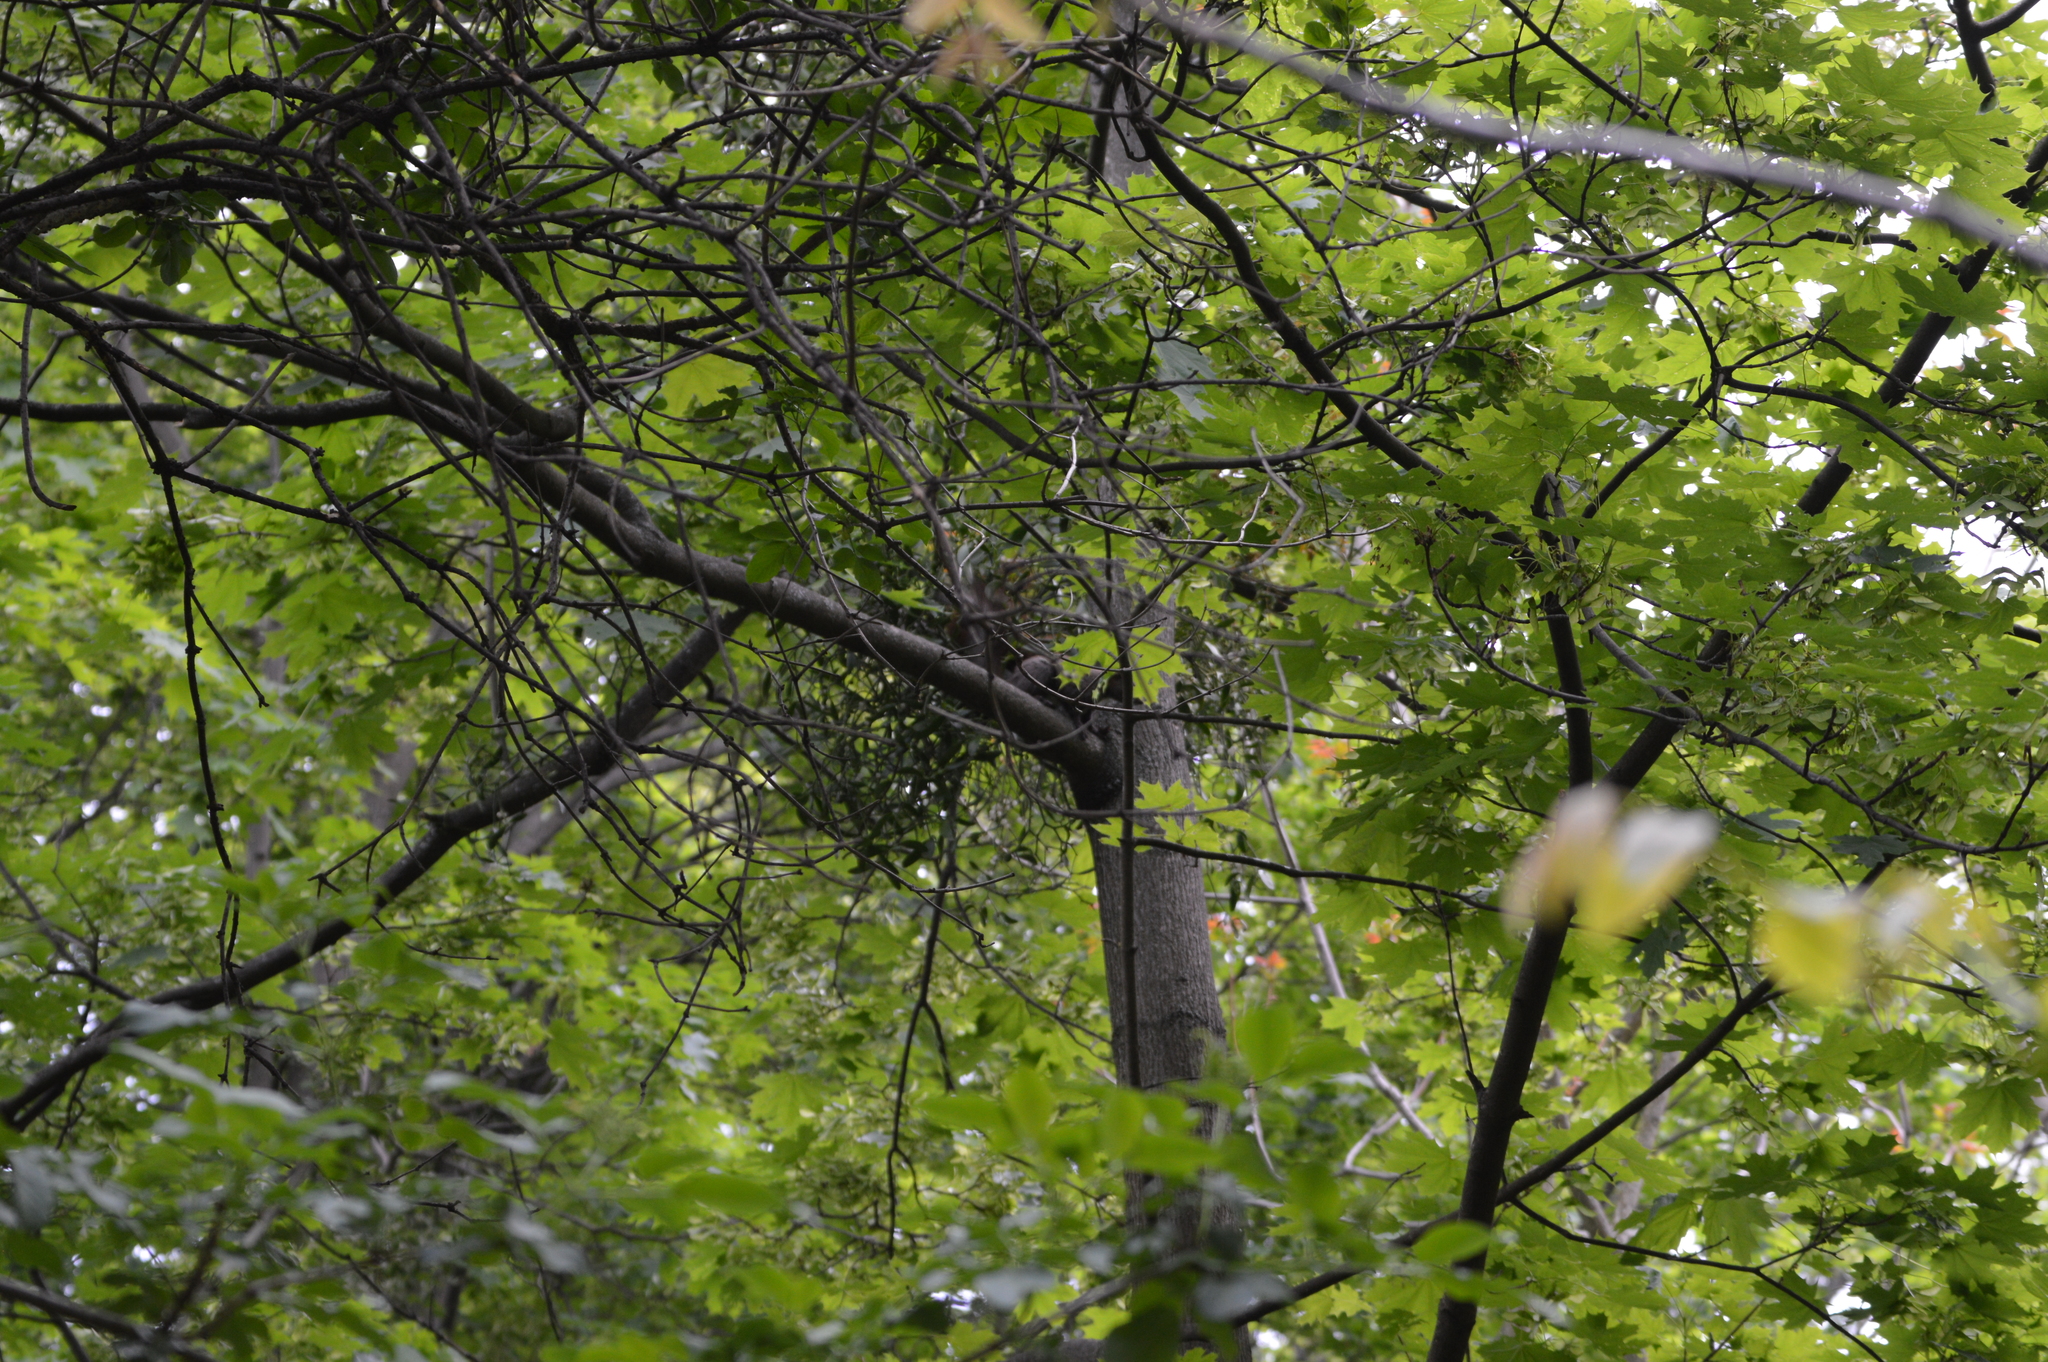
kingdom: Animalia
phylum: Chordata
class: Mammalia
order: Rodentia
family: Sciuridae
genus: Sciurus
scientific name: Sciurus vulgaris
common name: Eurasian red squirrel
